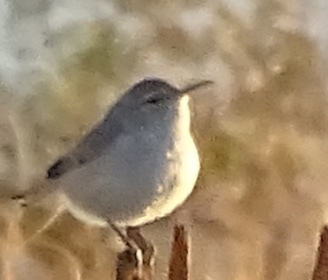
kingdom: Animalia
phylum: Chordata
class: Aves
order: Passeriformes
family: Troglodytidae
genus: Salpinctes
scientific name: Salpinctes obsoletus
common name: Rock wren
